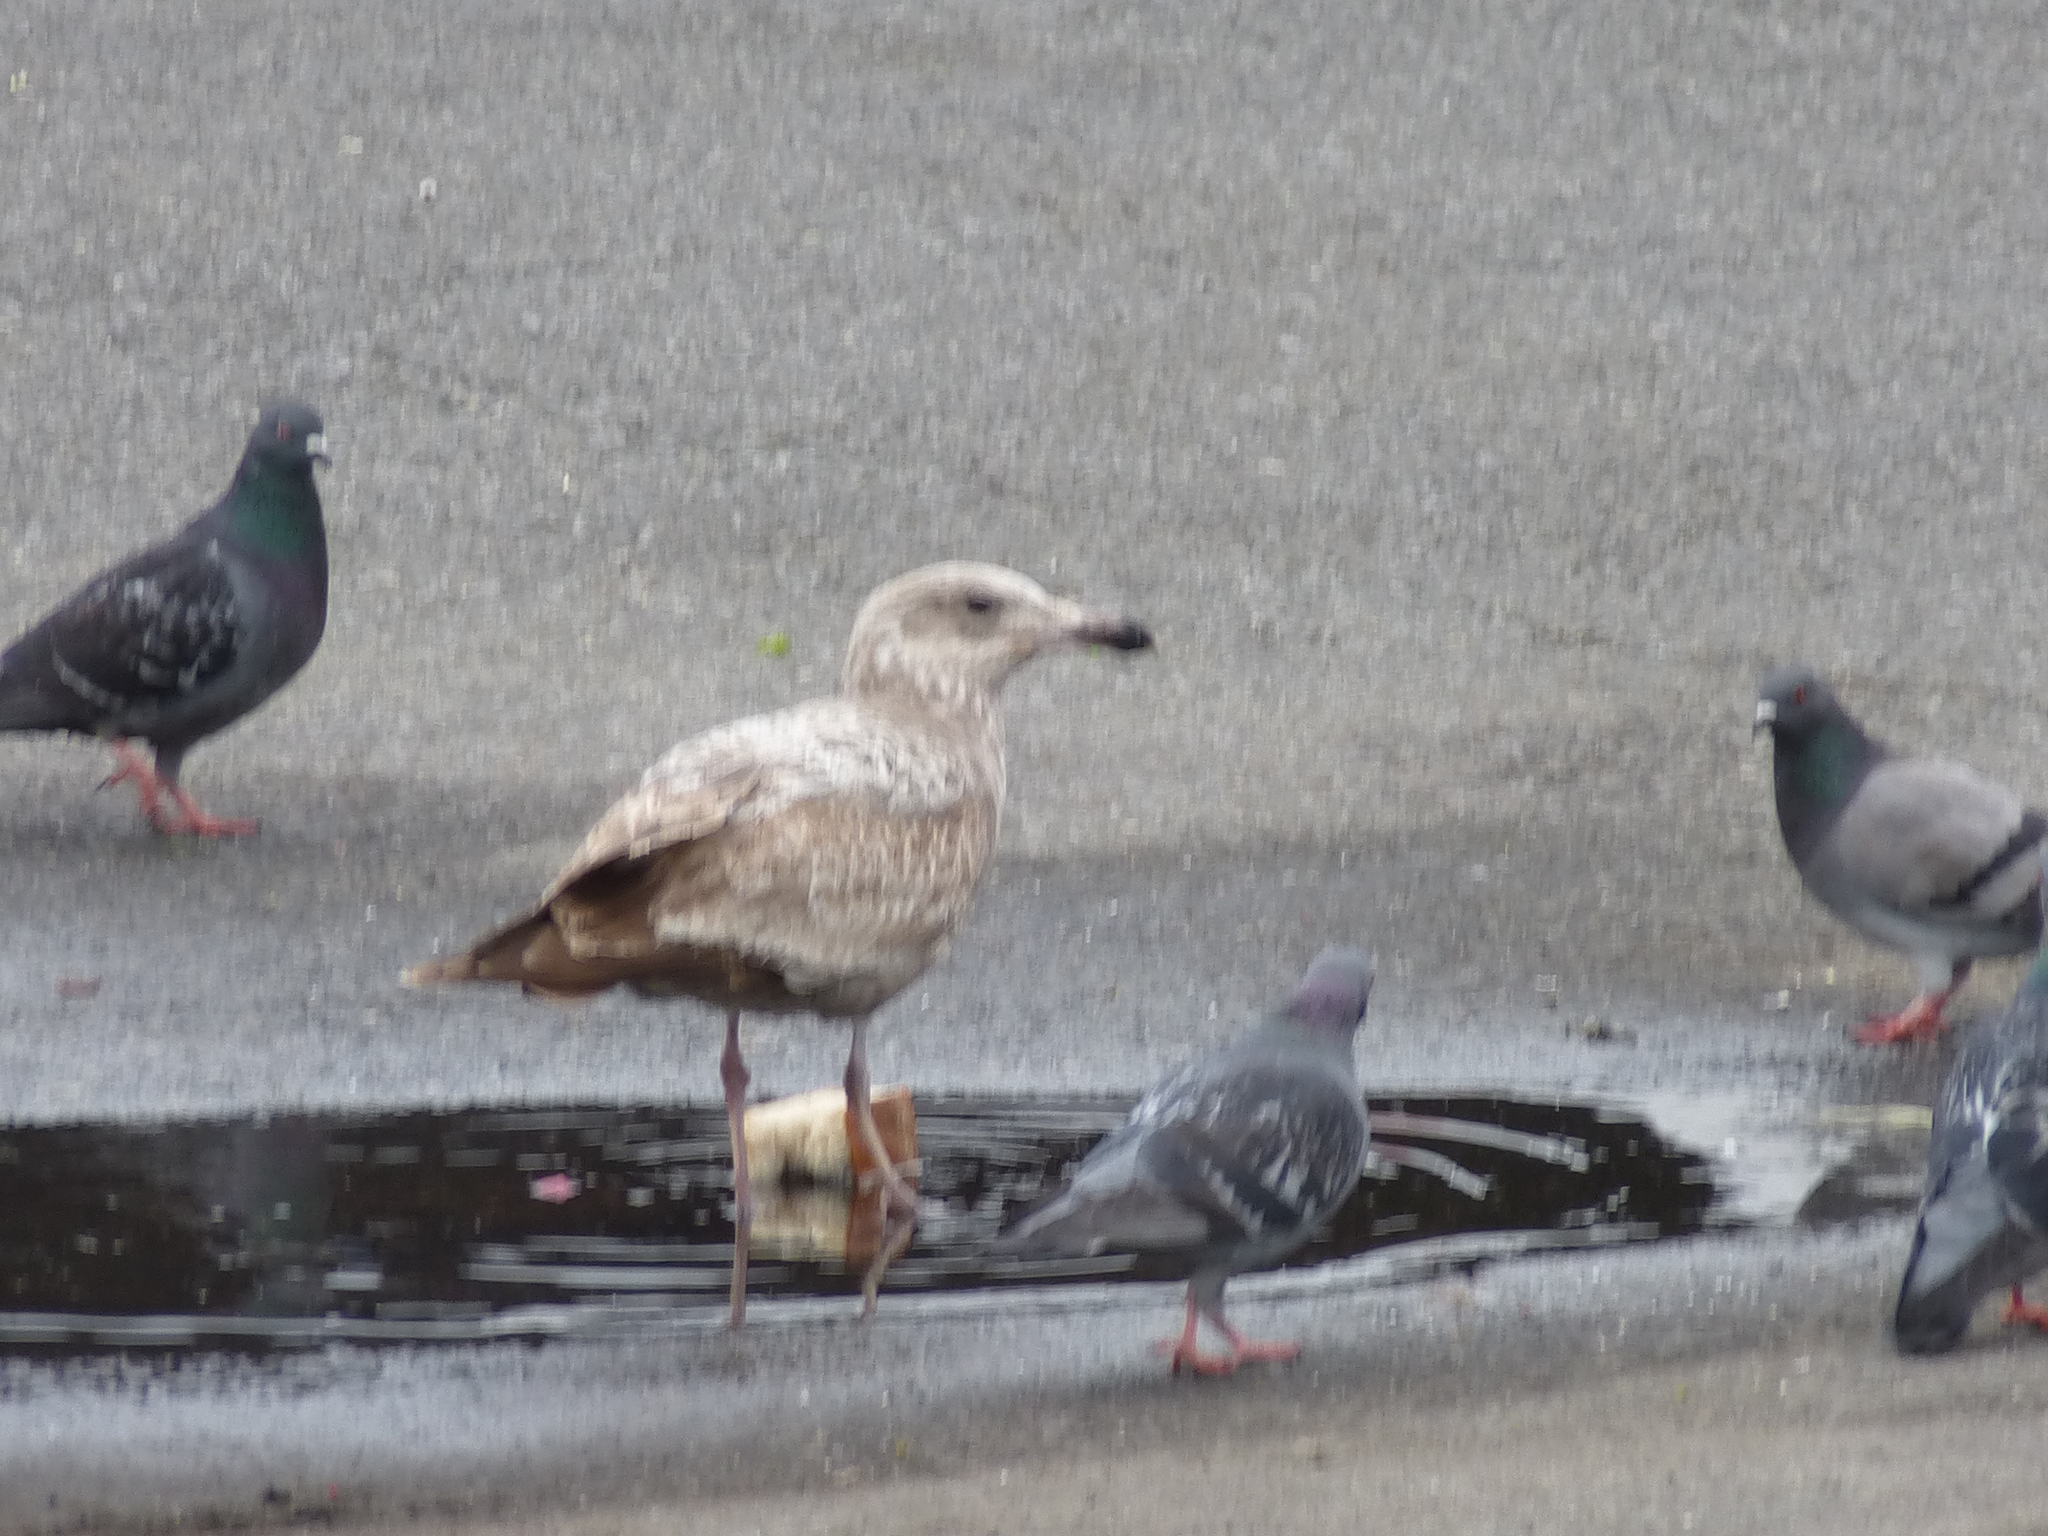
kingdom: Animalia
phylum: Chordata
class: Aves
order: Charadriiformes
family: Laridae
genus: Larus
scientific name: Larus argentatus
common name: Herring gull
